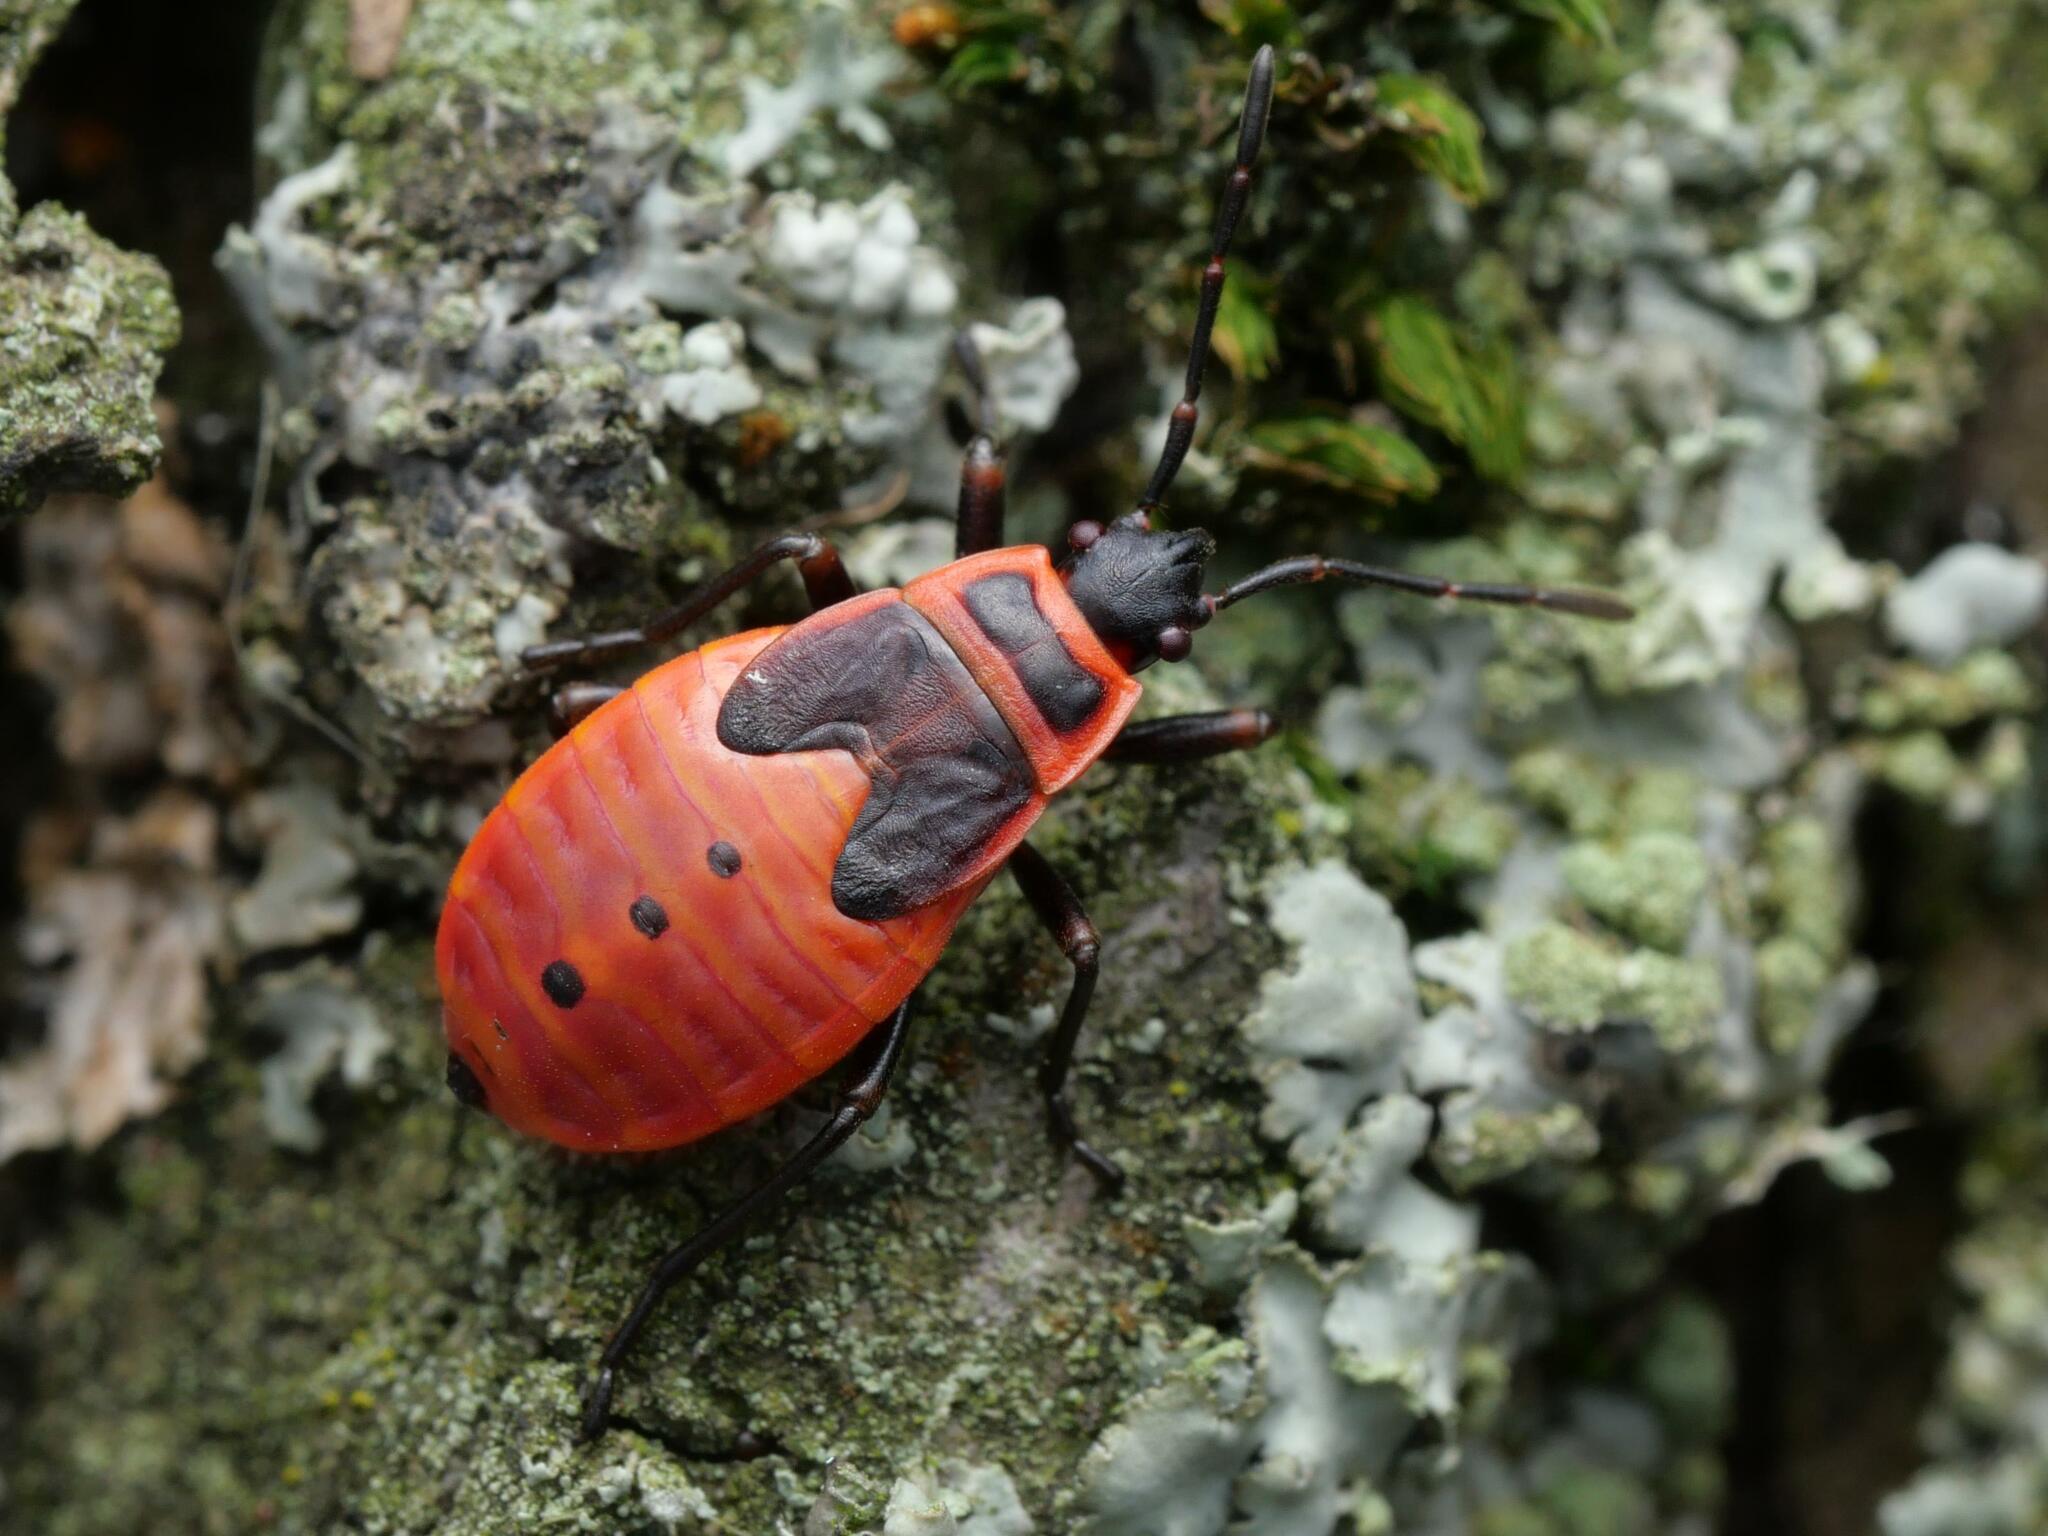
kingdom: Animalia
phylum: Arthropoda
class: Insecta
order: Hemiptera
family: Pyrrhocoridae
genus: Pyrrhocoris
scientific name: Pyrrhocoris apterus
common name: Firebug
